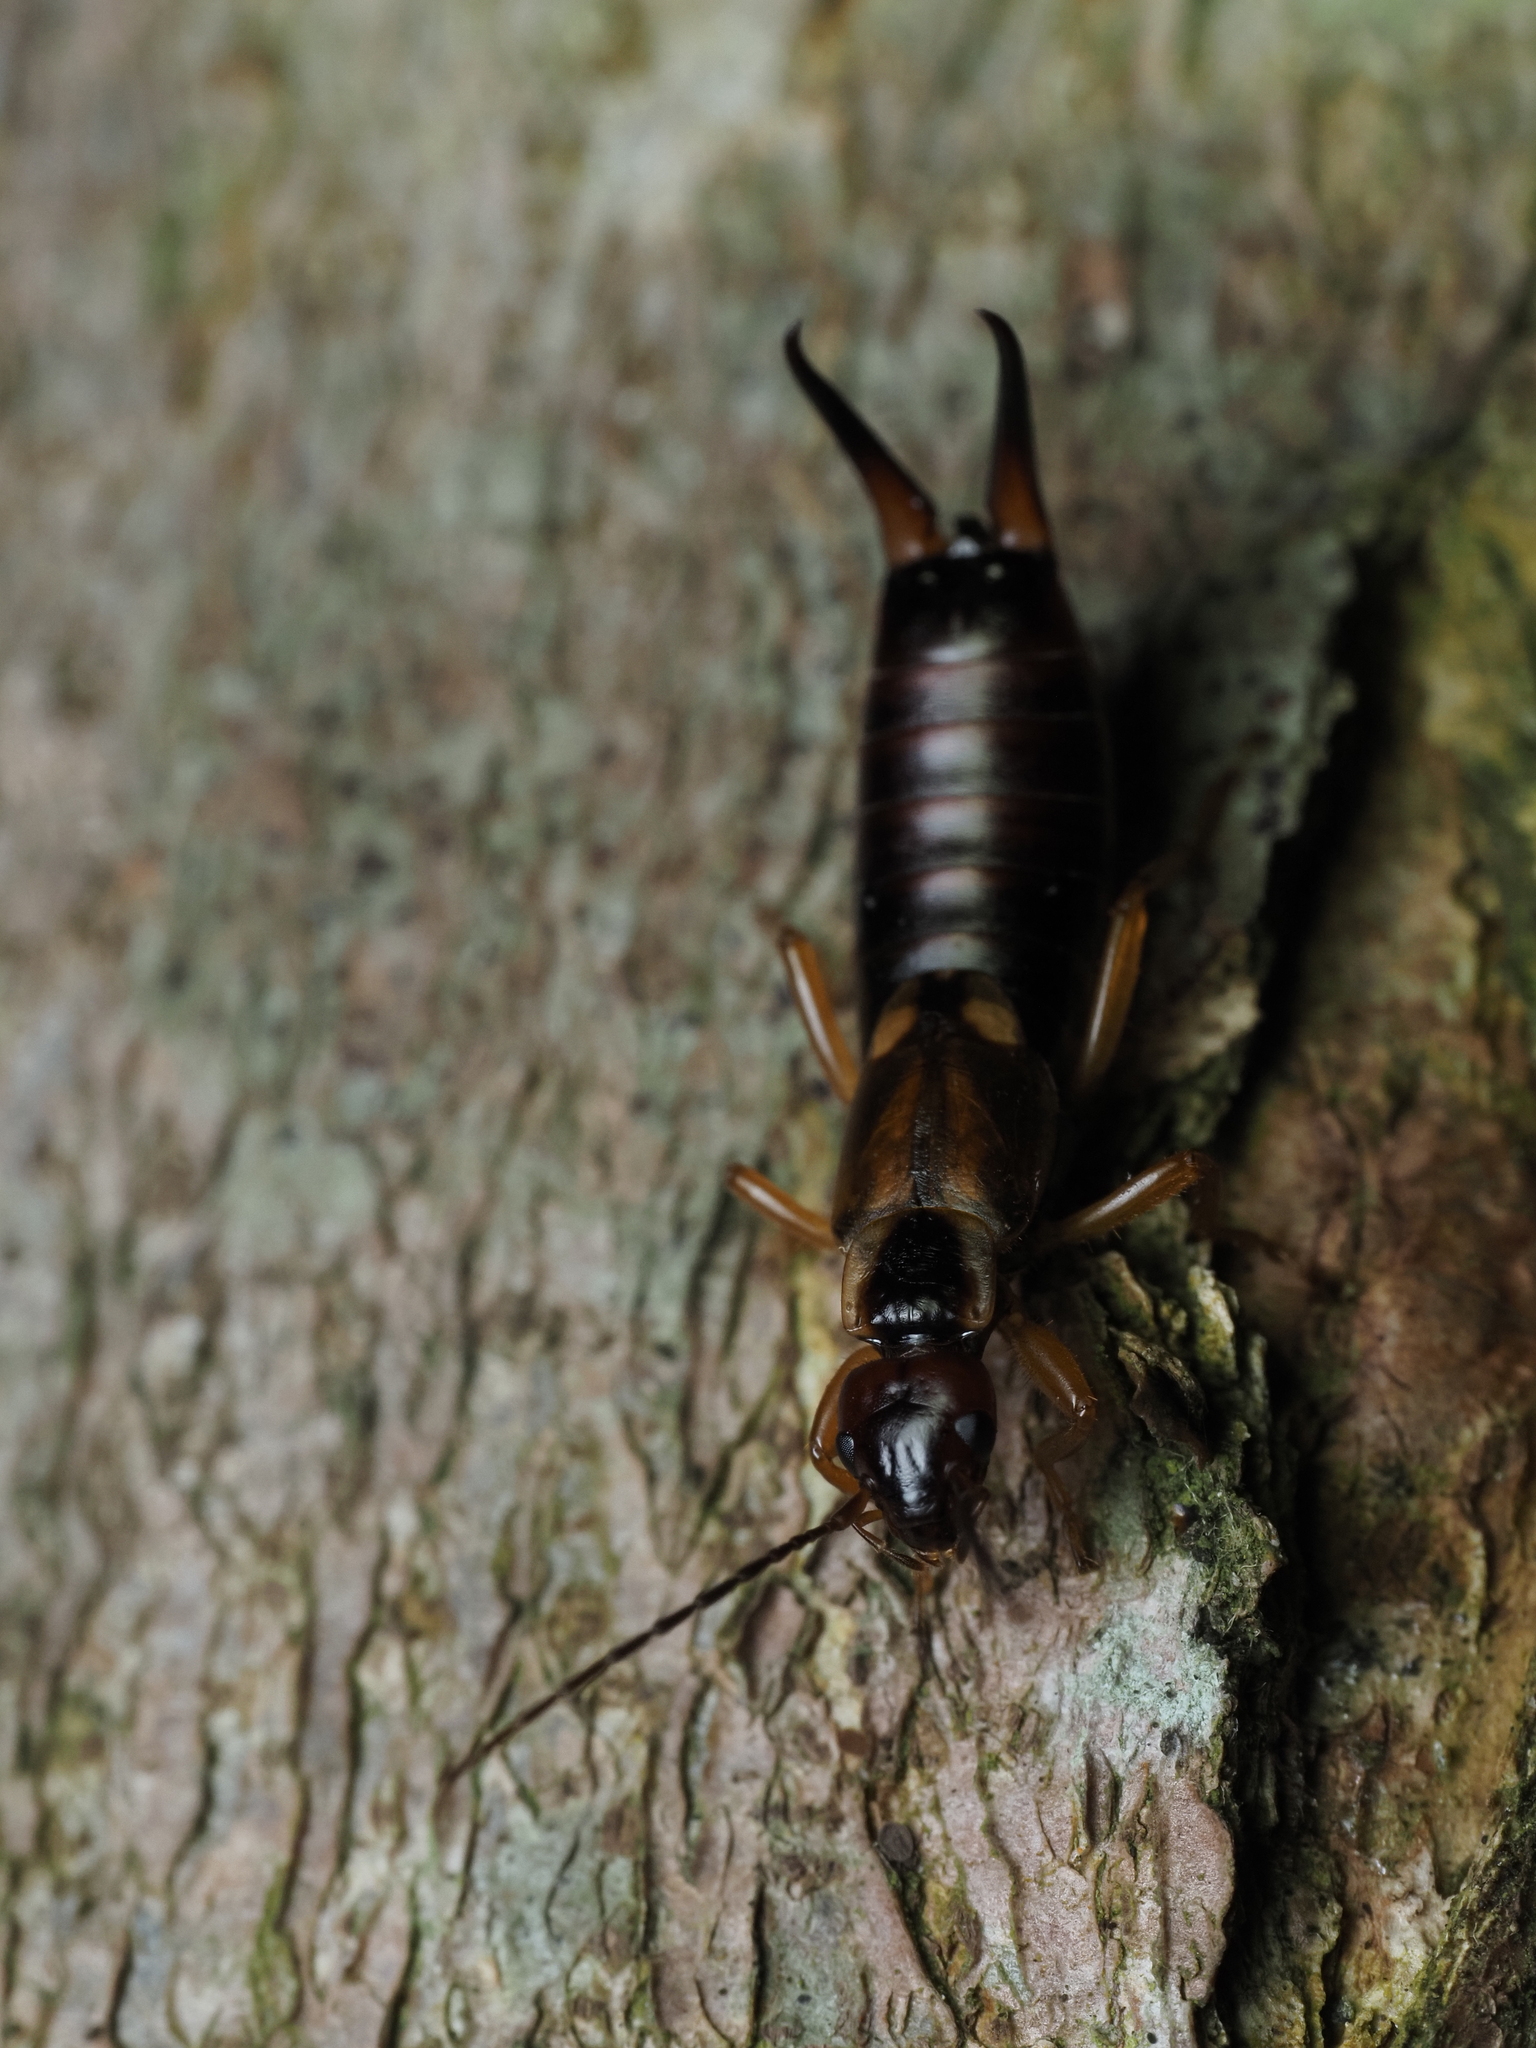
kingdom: Animalia
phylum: Arthropoda
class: Insecta
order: Dermaptera
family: Forficulidae
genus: Forficula
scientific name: Forficula
